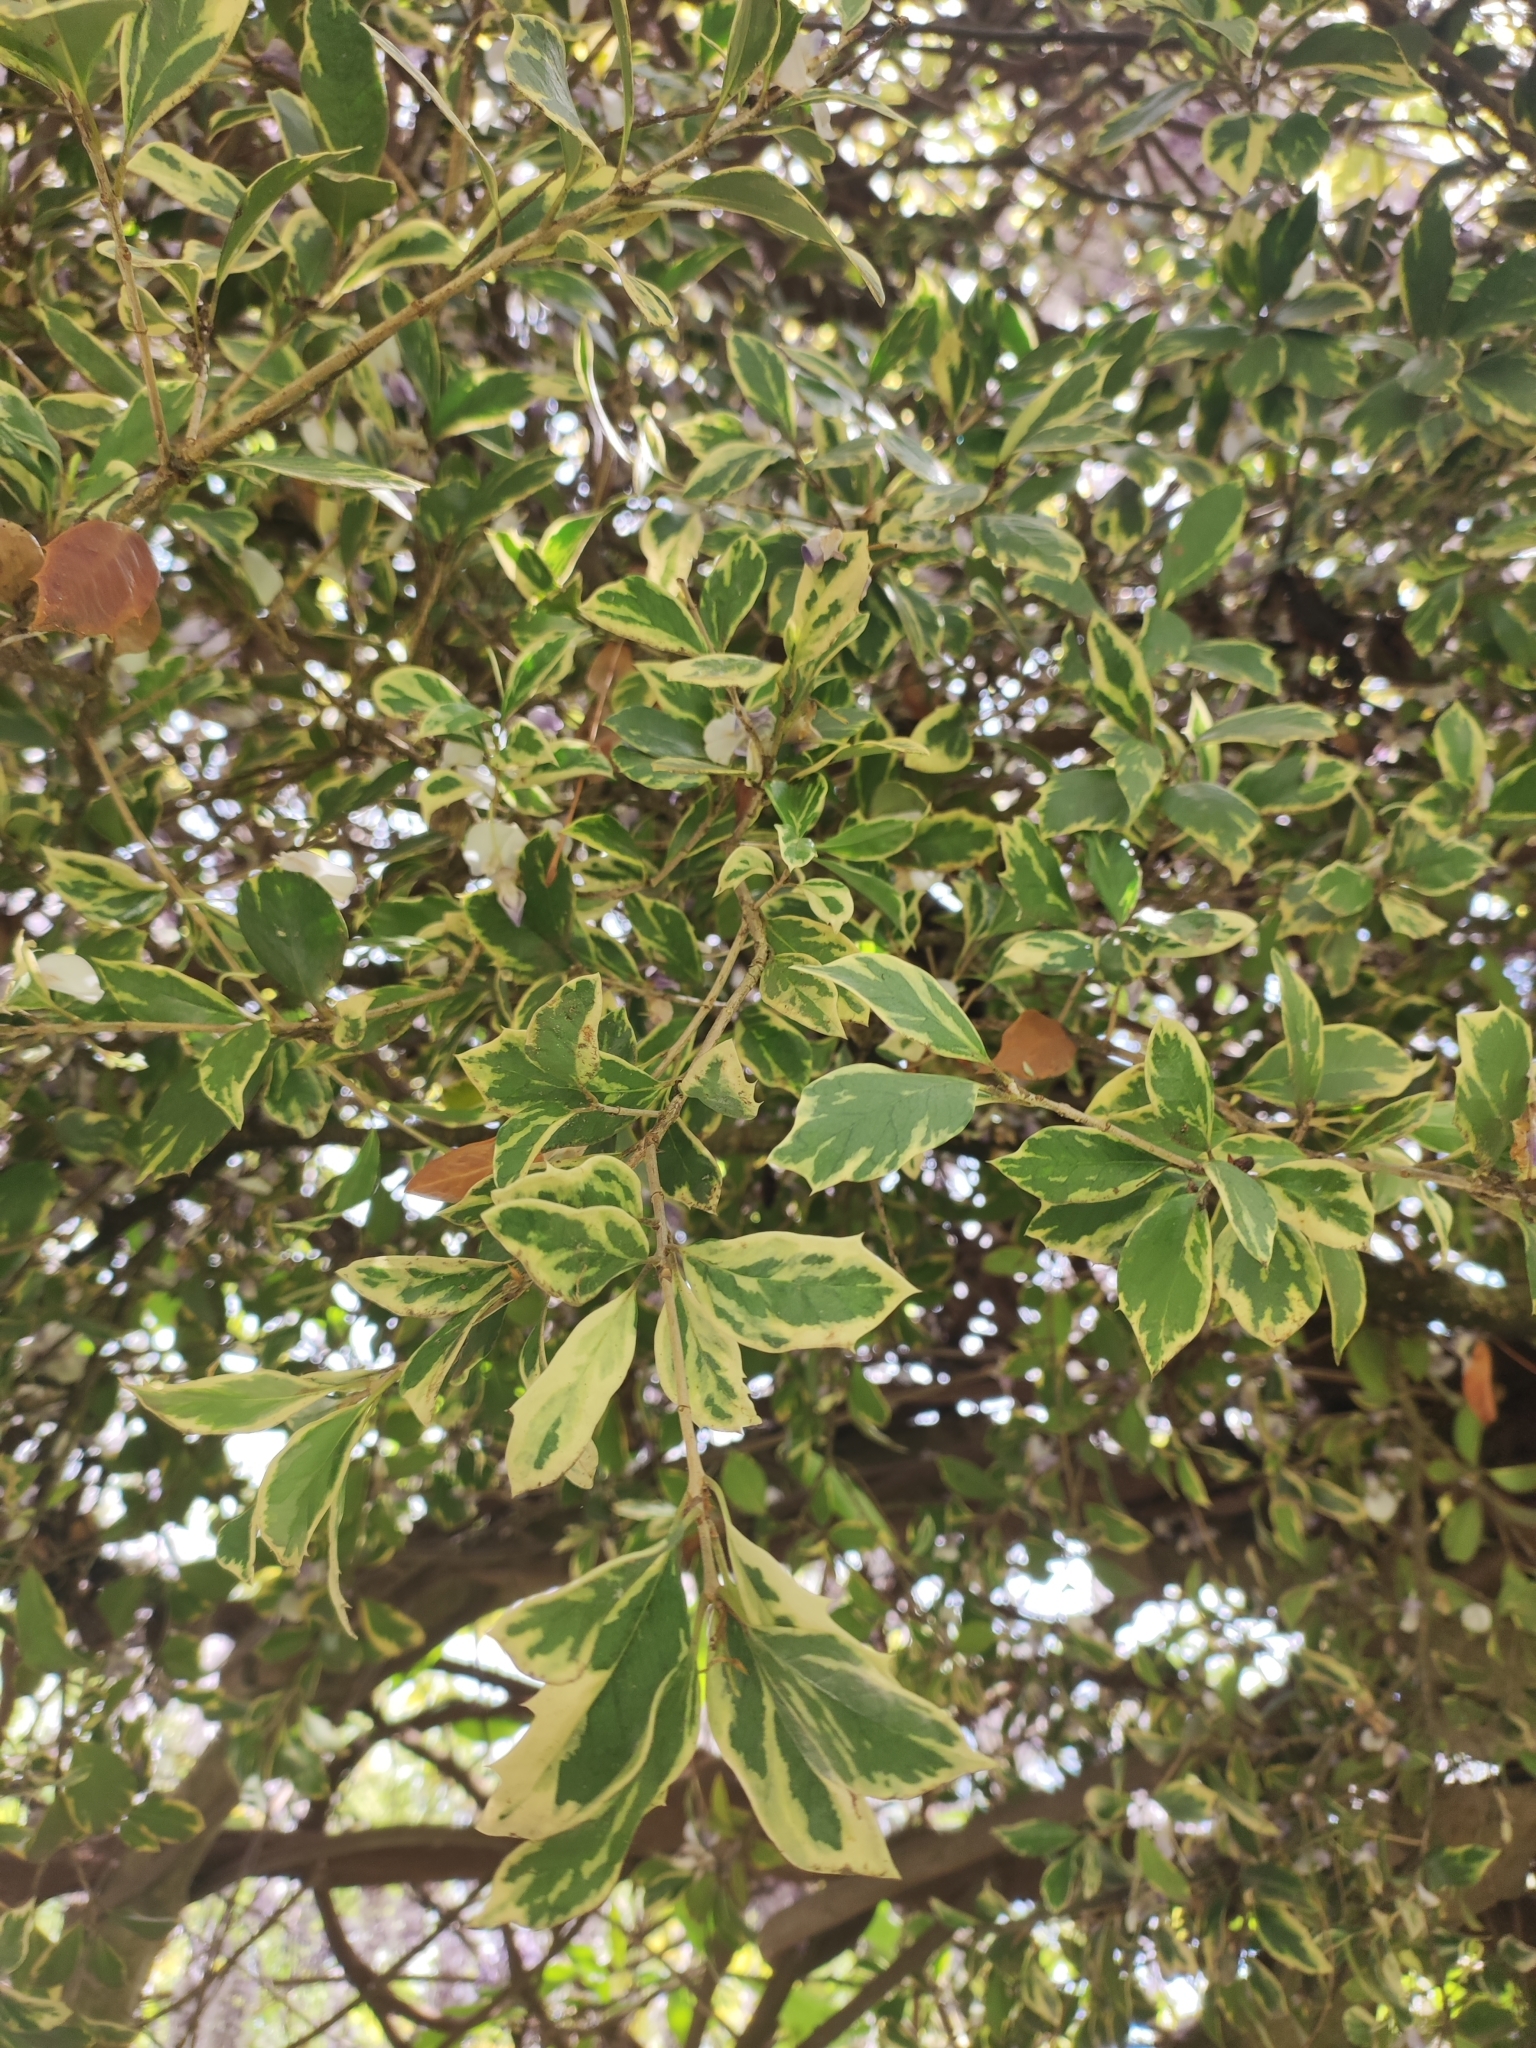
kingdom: Plantae
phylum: Tracheophyta
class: Magnoliopsida
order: Celastrales
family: Celastraceae
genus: Euonymus
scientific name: Euonymus japonicus
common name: Japanese spindletree
